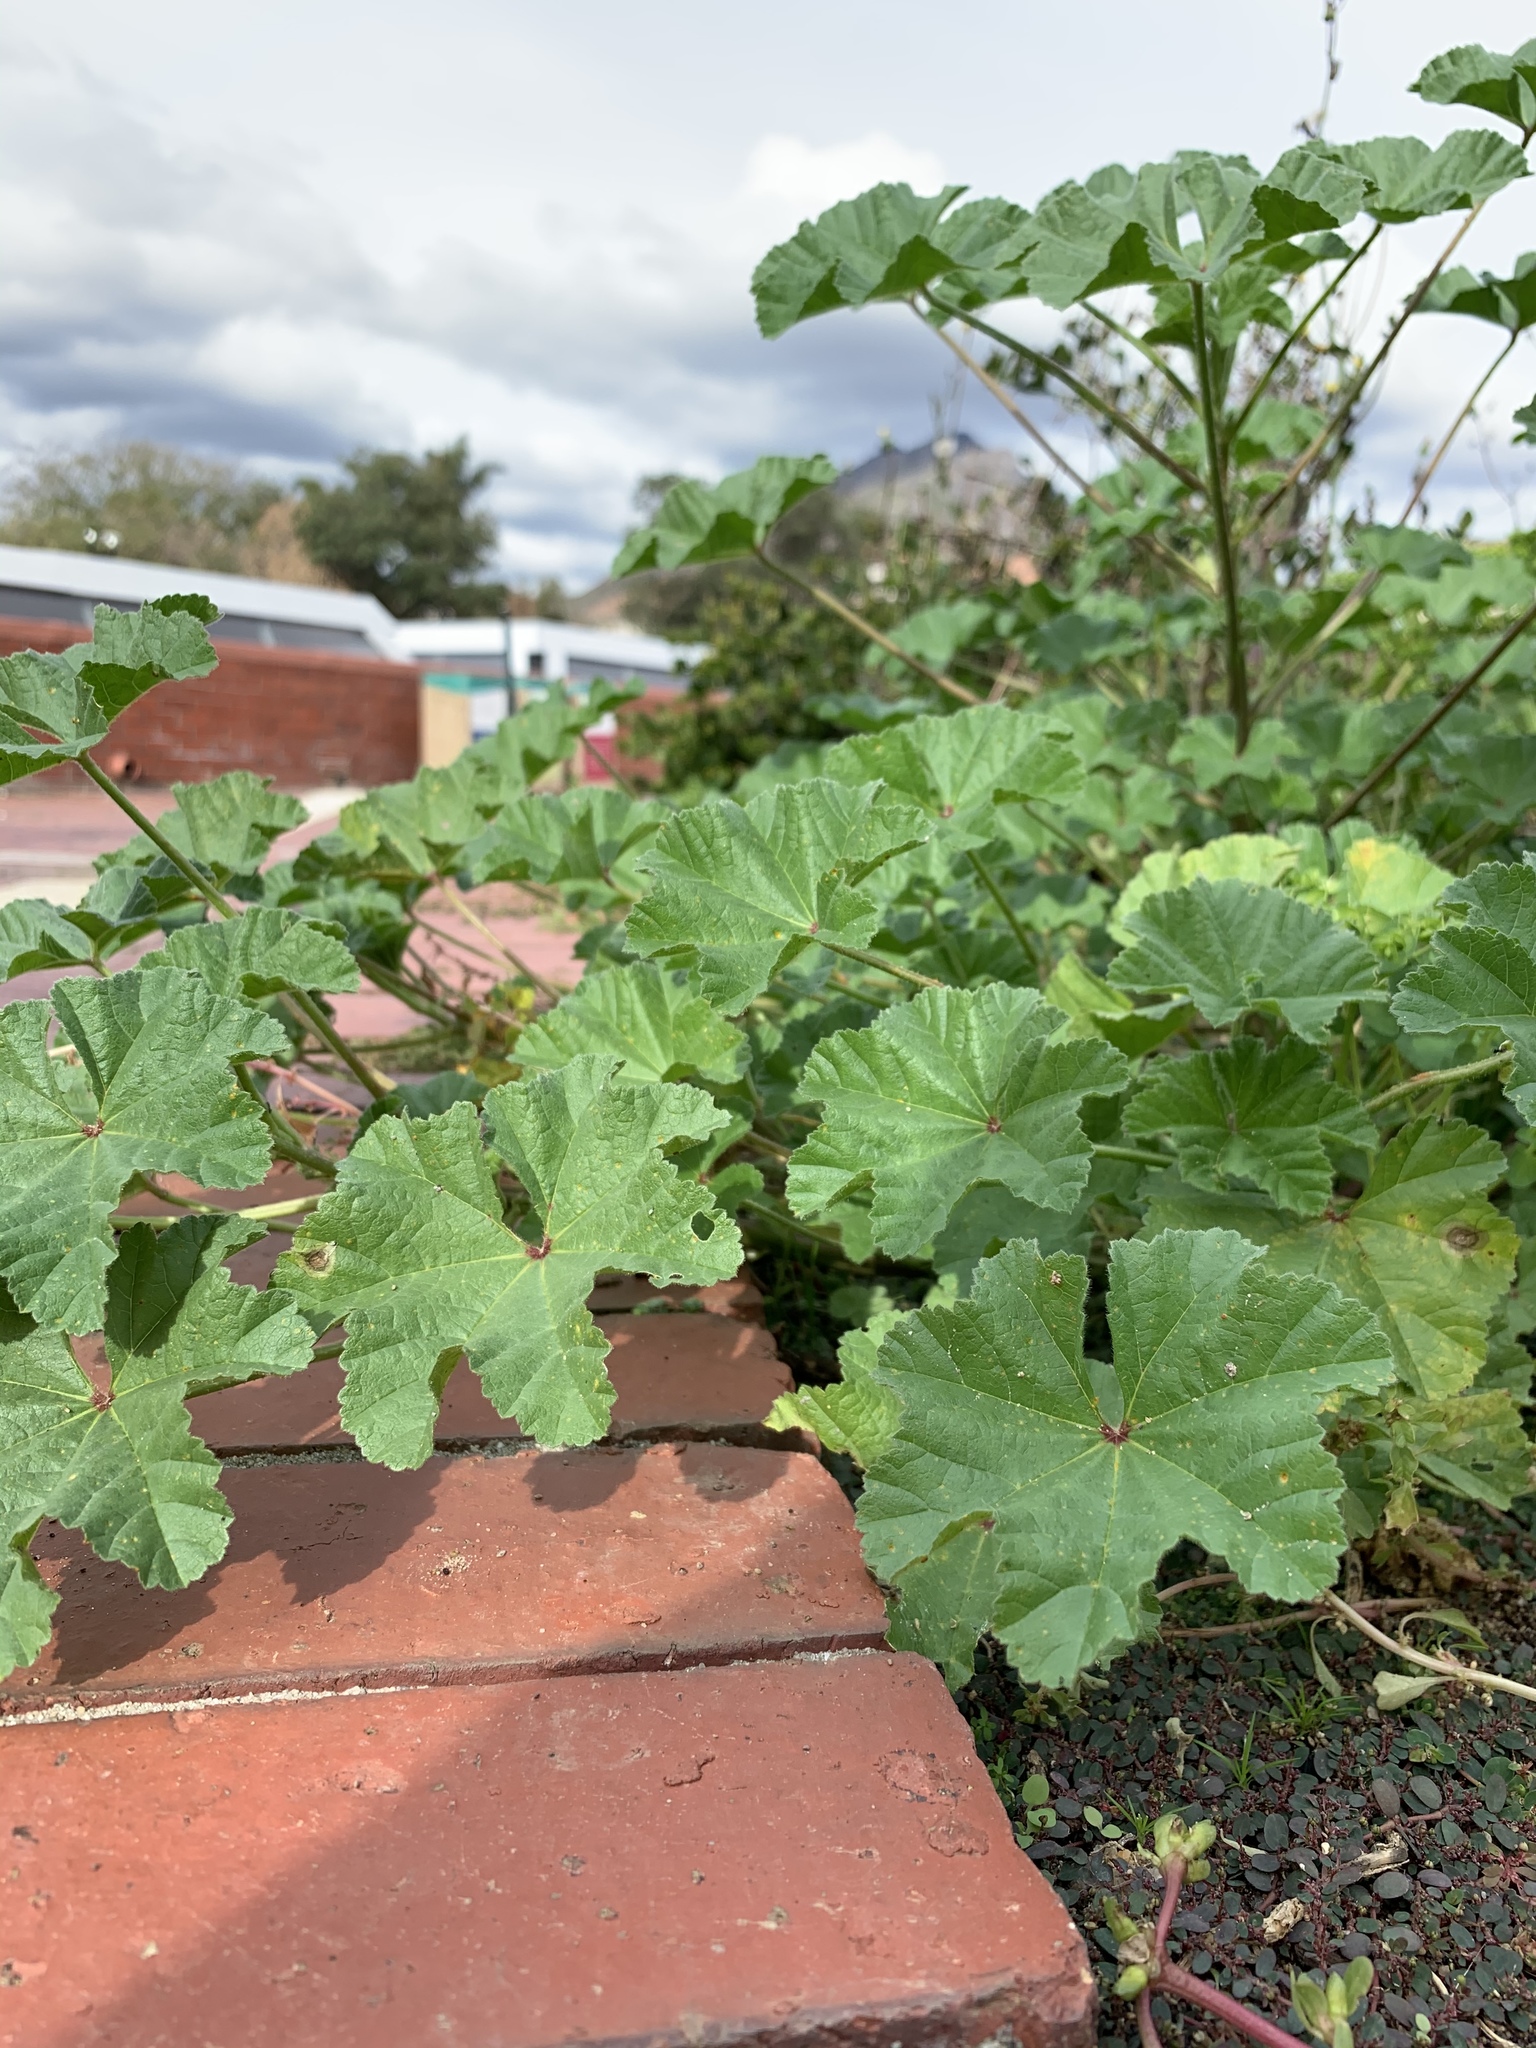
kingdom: Plantae
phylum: Tracheophyta
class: Magnoliopsida
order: Malvales
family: Malvaceae
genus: Malva
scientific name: Malva parviflora
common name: Least mallow
